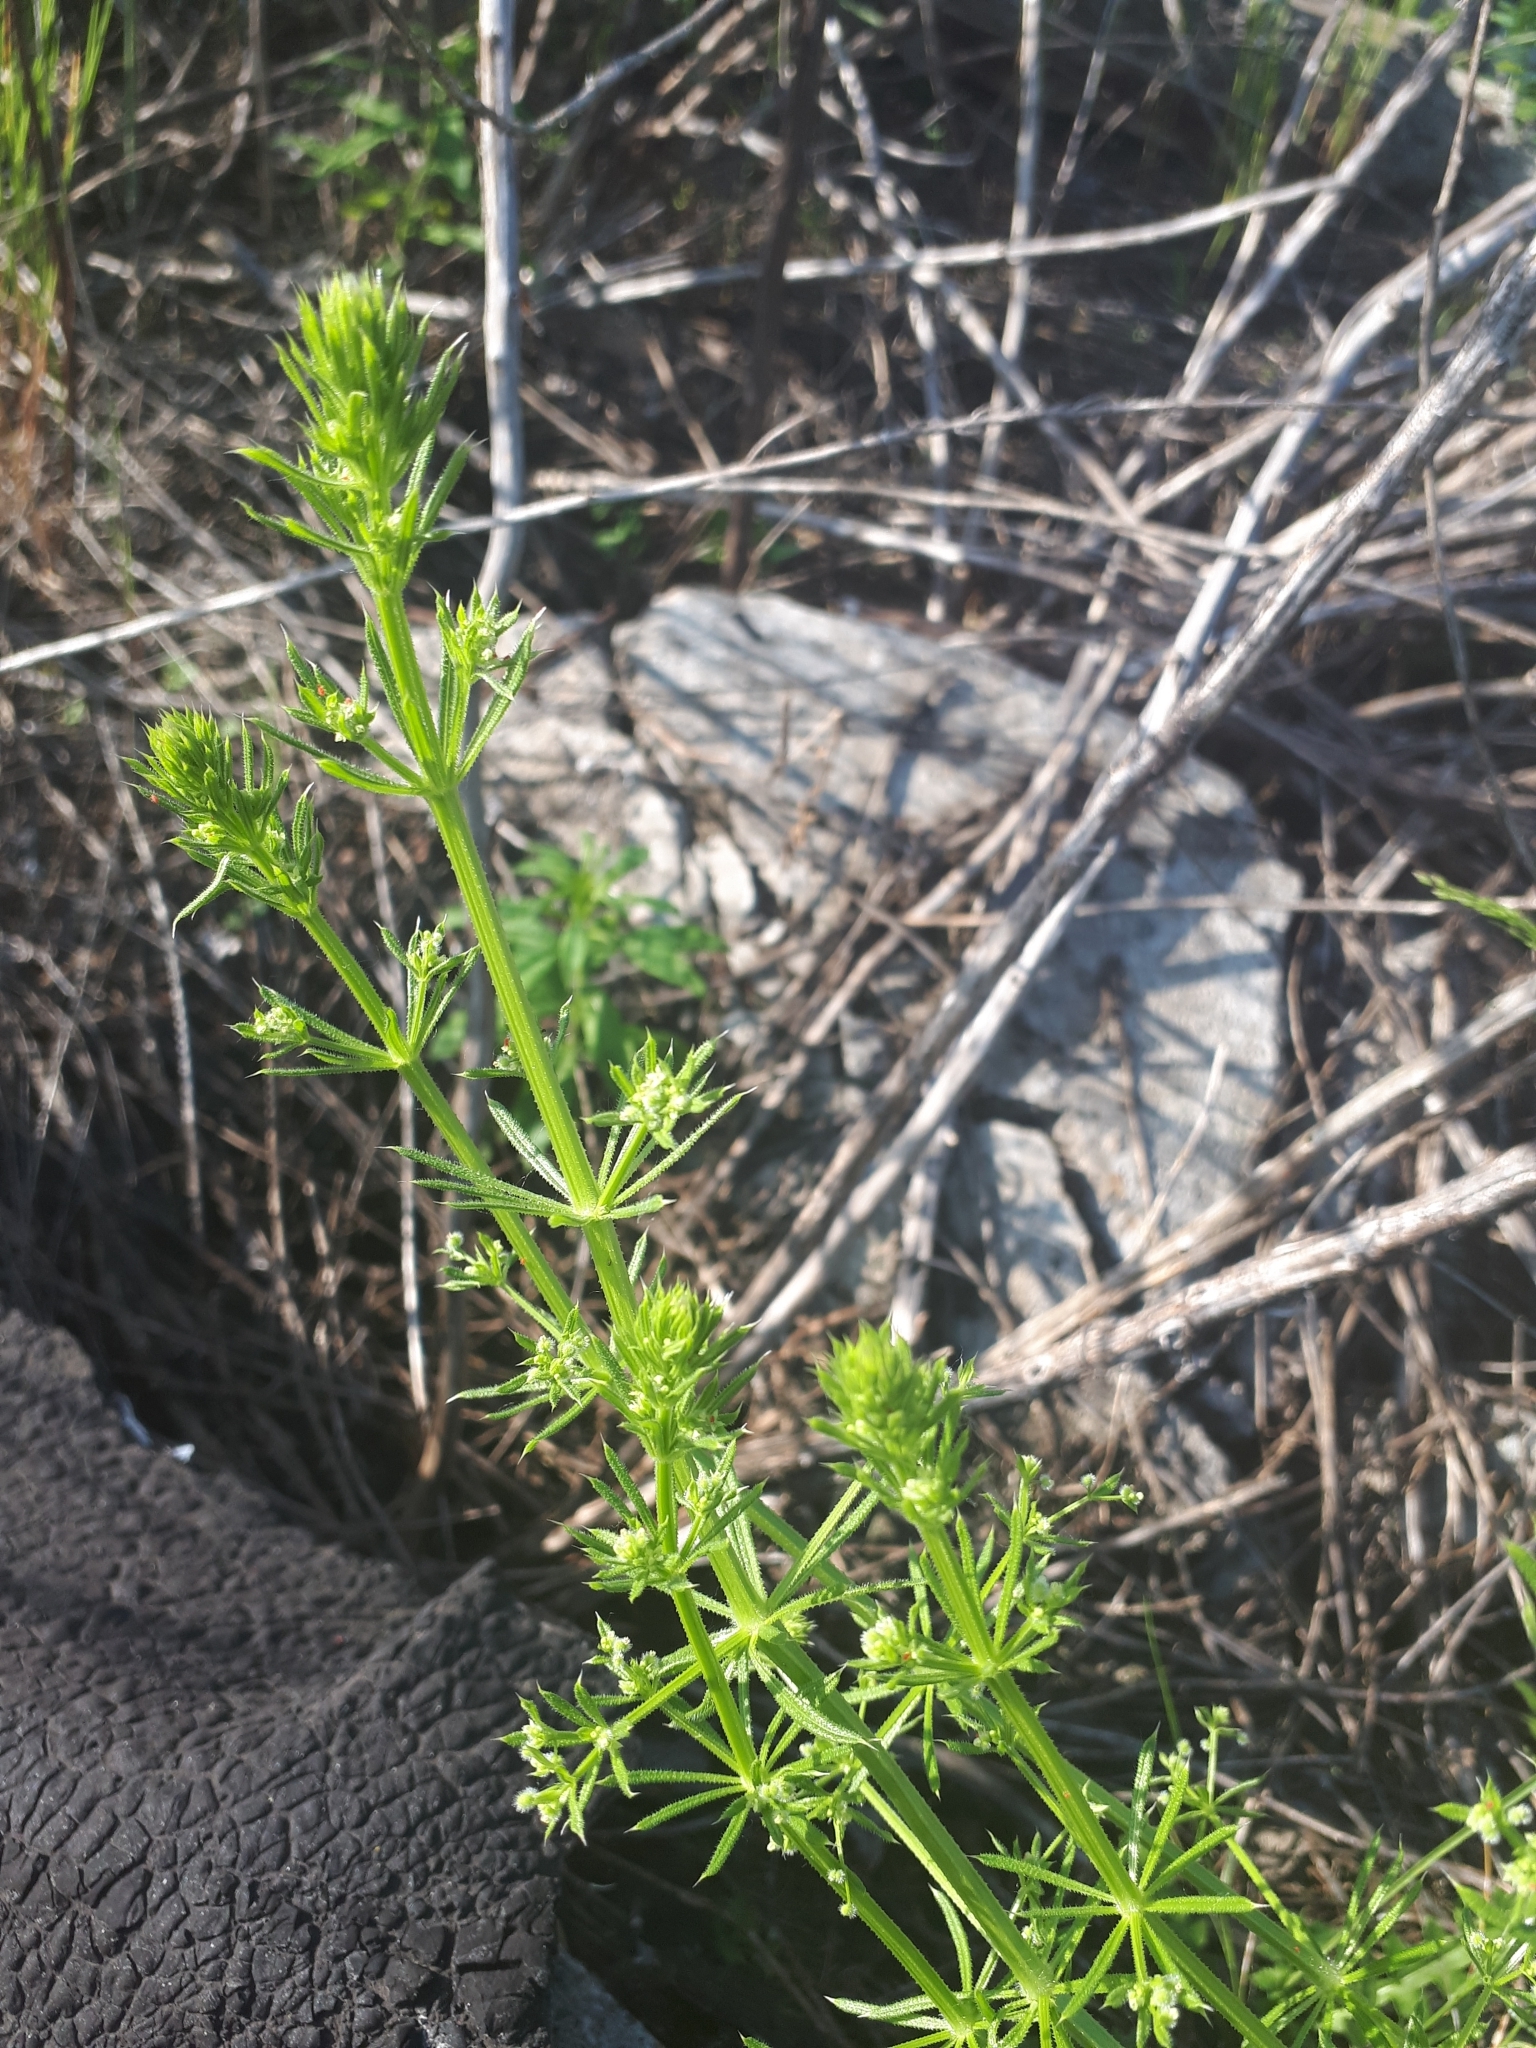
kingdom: Plantae
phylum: Tracheophyta
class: Magnoliopsida
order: Gentianales
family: Rubiaceae
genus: Galium
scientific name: Galium aparine
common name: Cleavers
